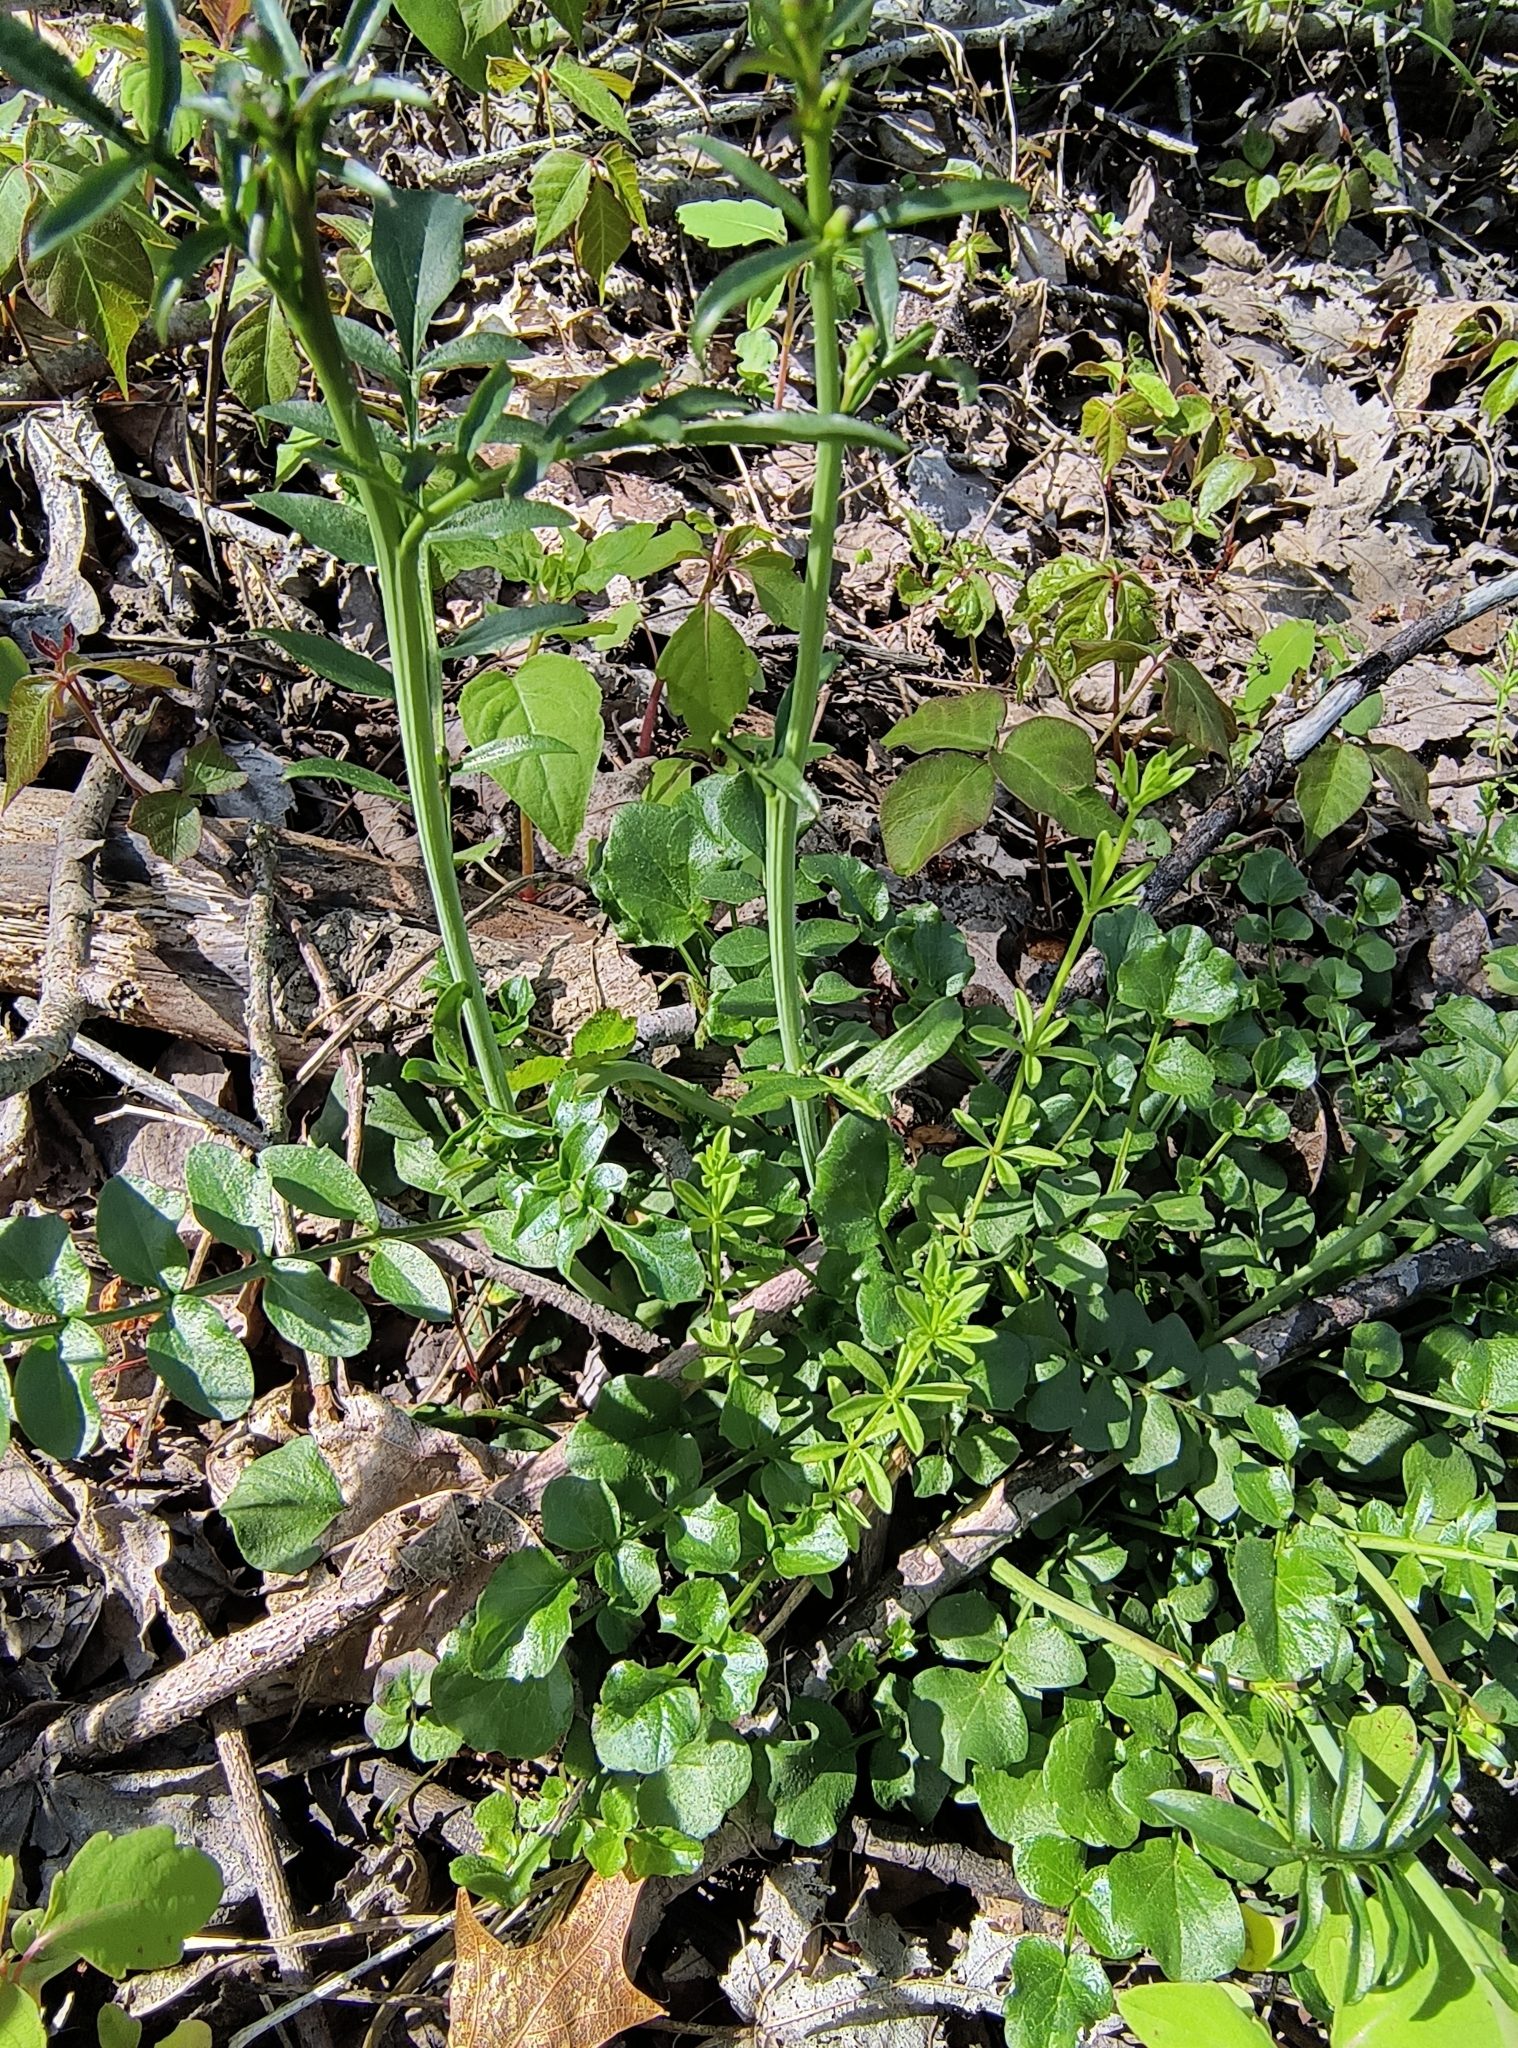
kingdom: Plantae
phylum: Tracheophyta
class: Magnoliopsida
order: Brassicales
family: Brassicaceae
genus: Cardamine
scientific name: Cardamine pratensis
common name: Cuckoo flower
